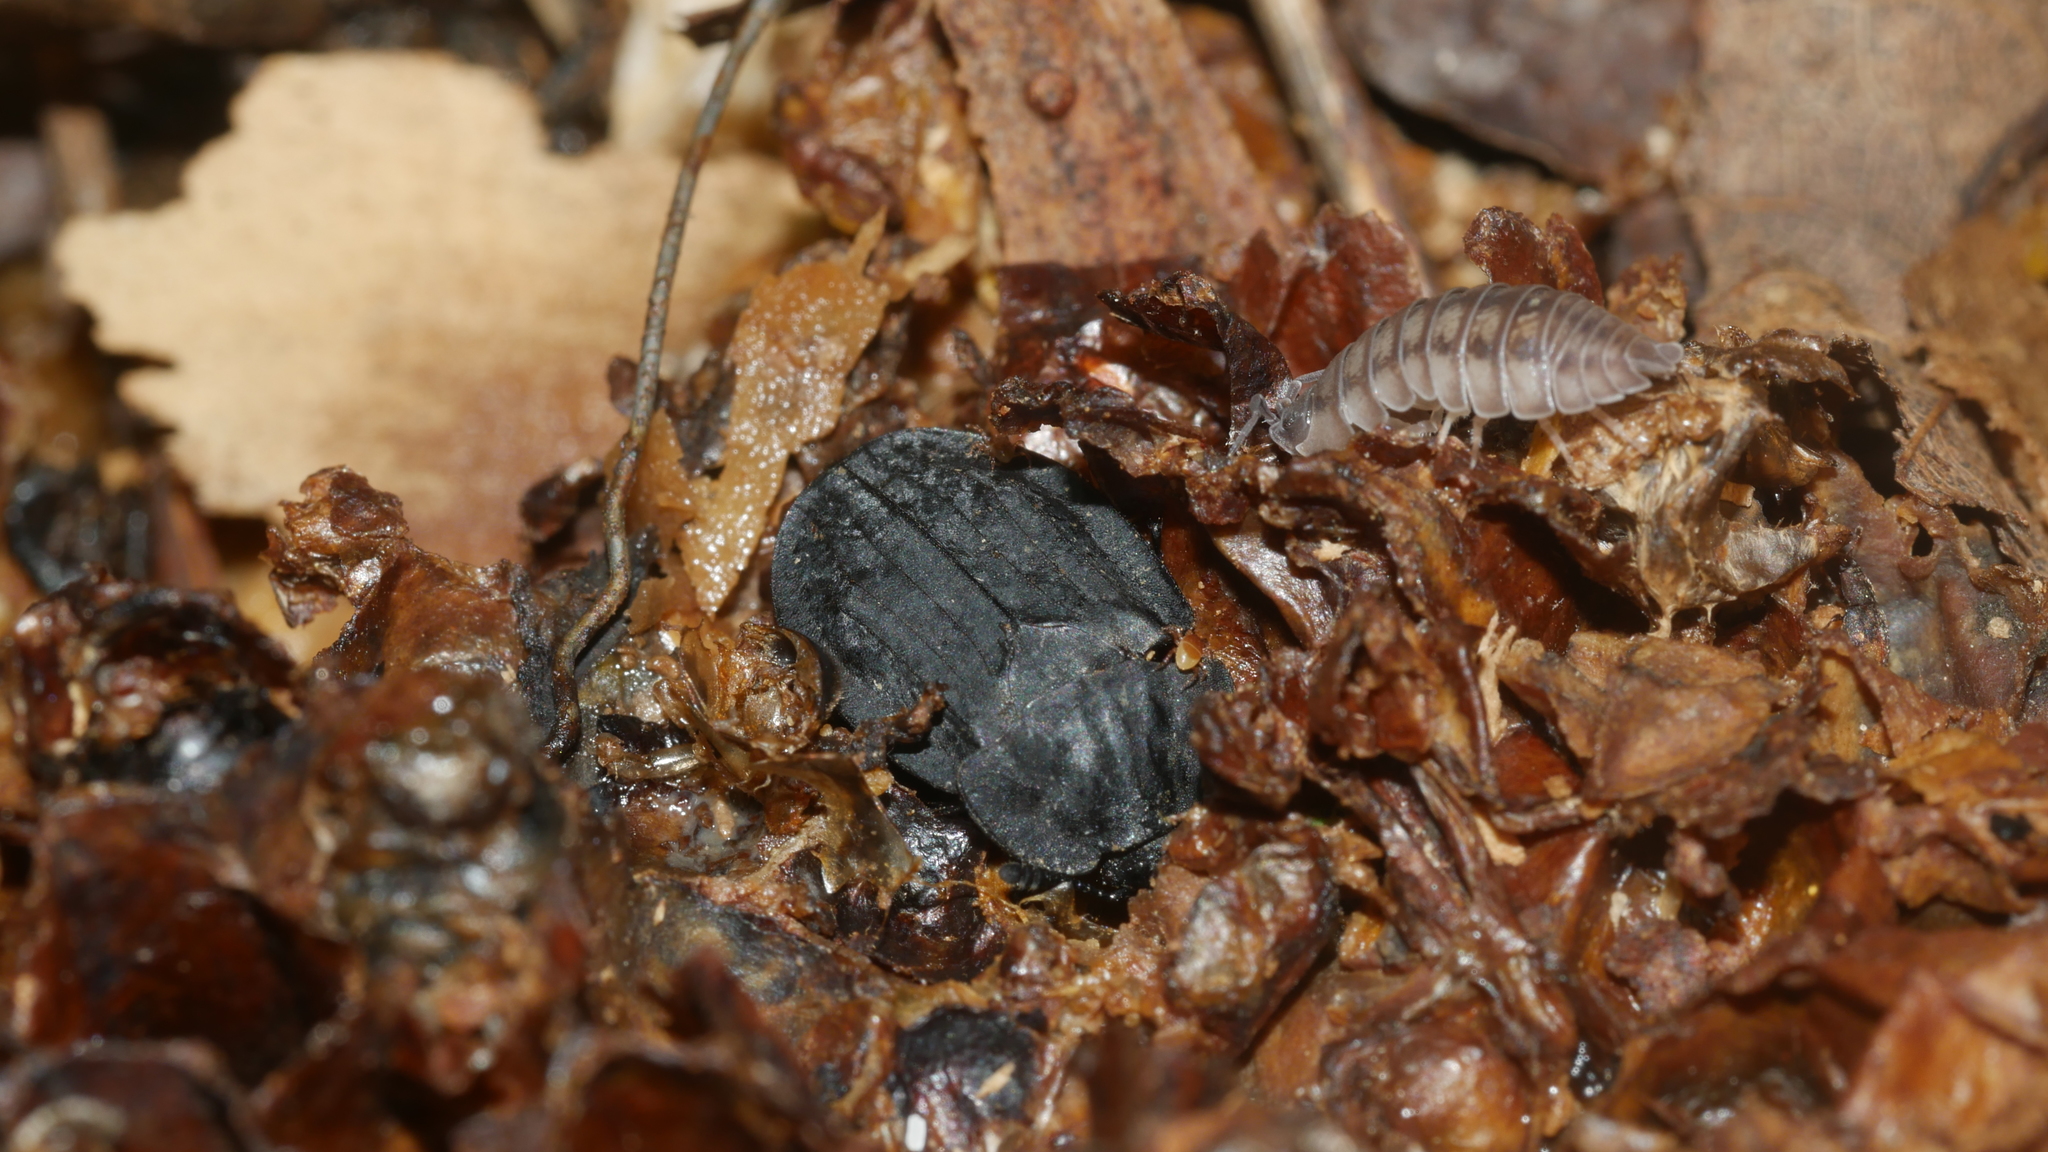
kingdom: Animalia
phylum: Arthropoda
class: Insecta
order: Coleoptera
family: Staphylinidae
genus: Oiceoptoma
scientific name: Oiceoptoma inaequale
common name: Ridged carrion beetle
